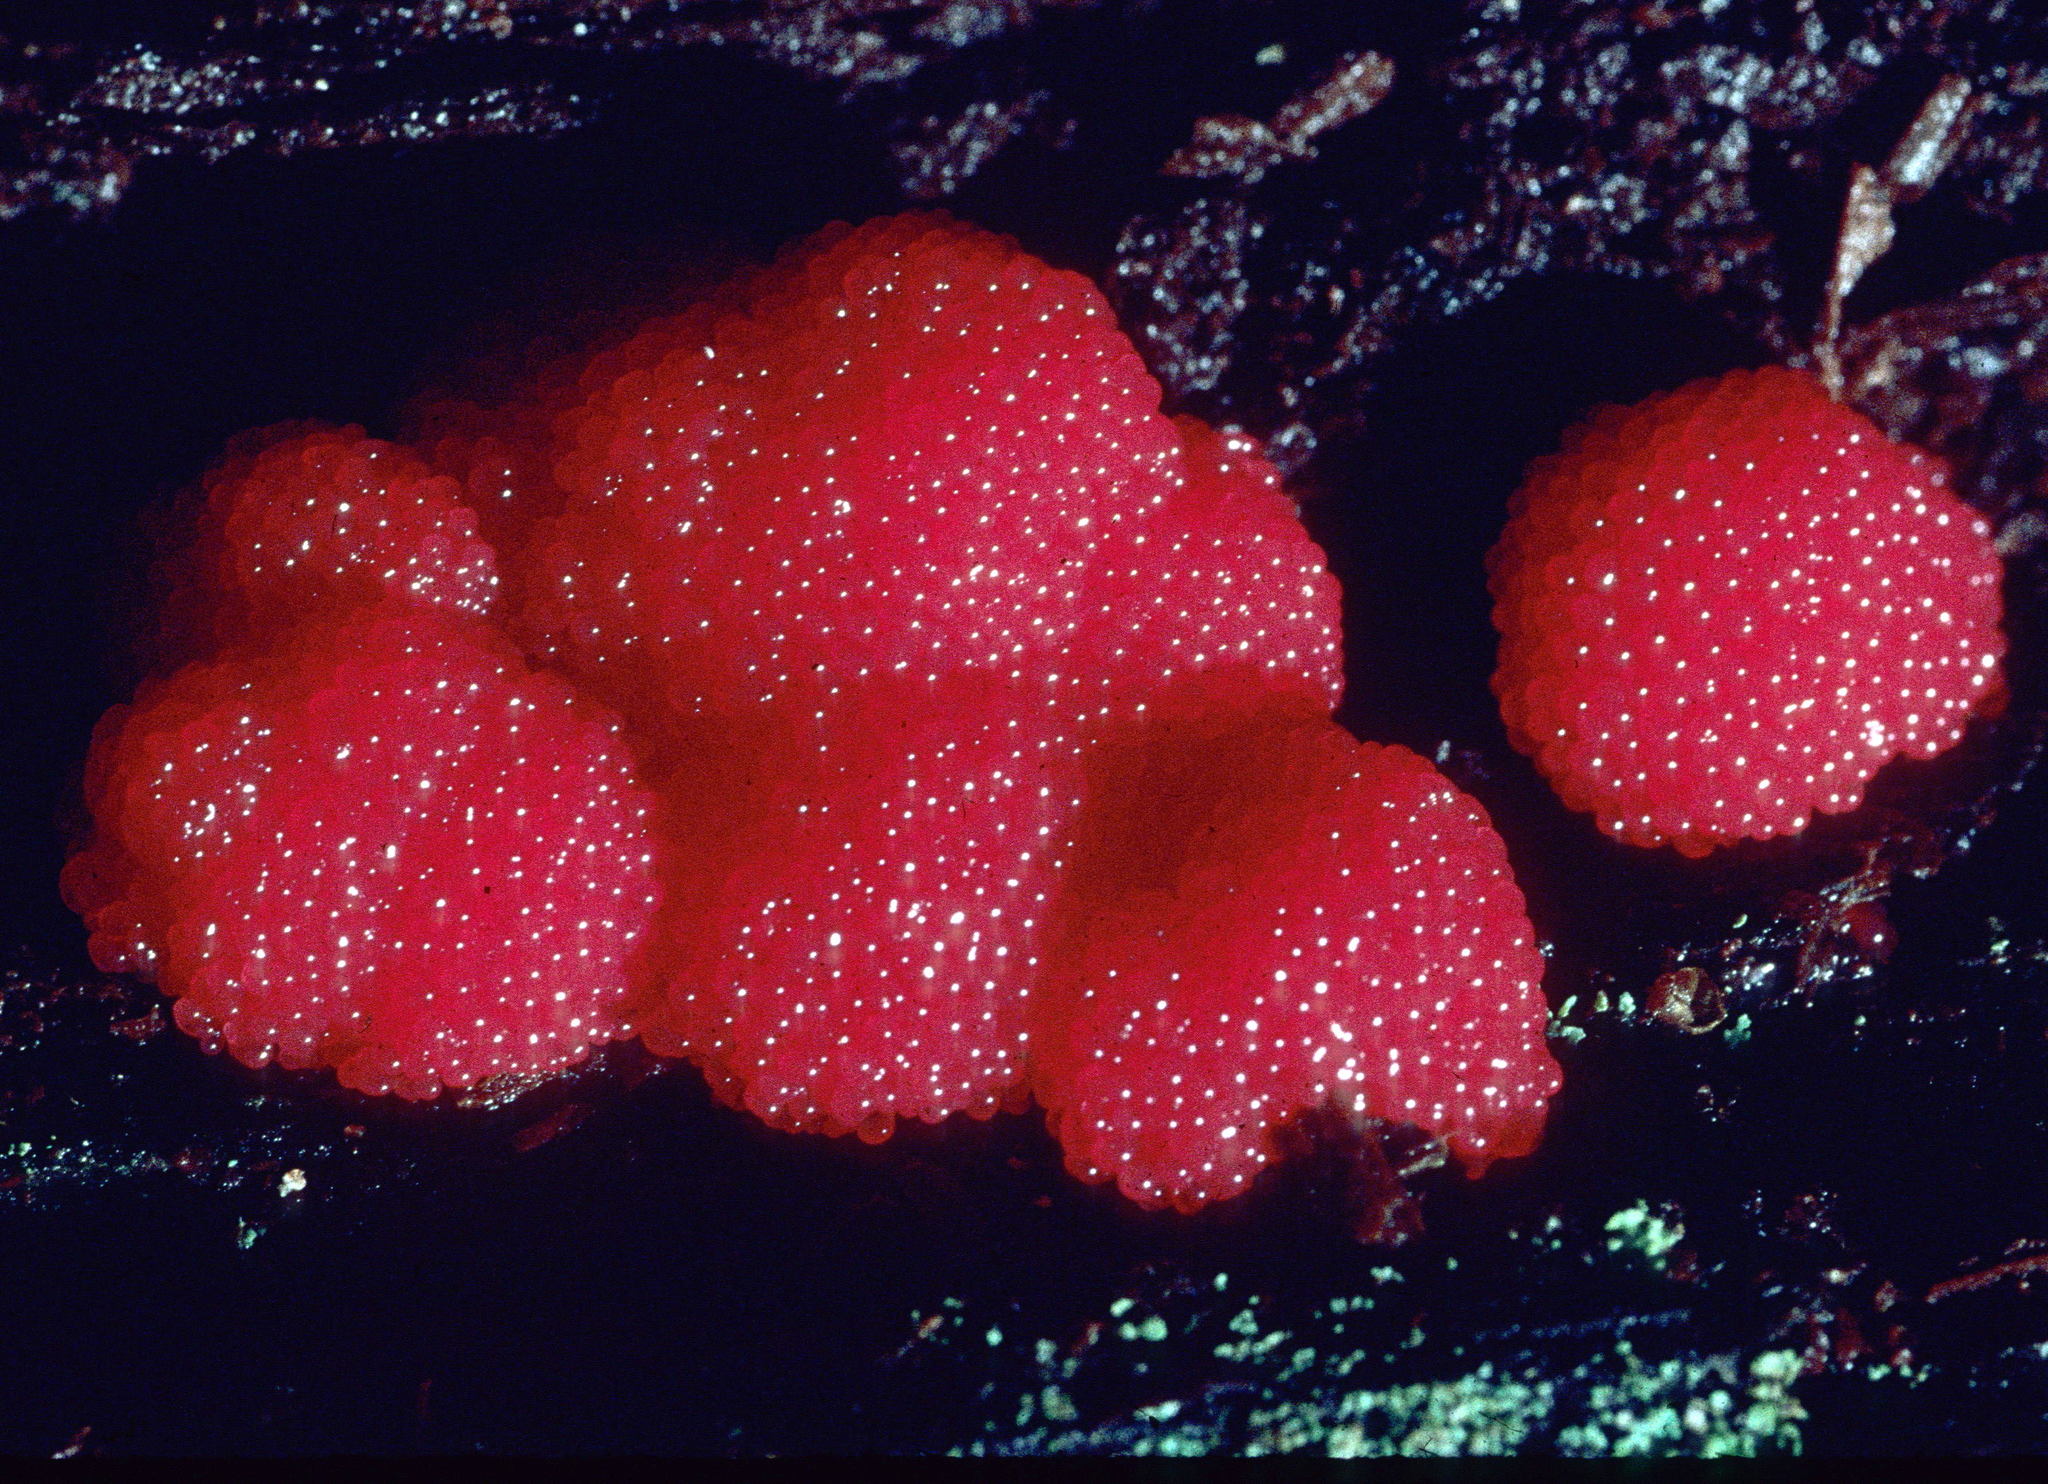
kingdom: Protozoa
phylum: Mycetozoa
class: Myxomycetes
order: Cribrariales
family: Tubiferaceae
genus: Tubifera
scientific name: Tubifera ferruginosa
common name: Red raspberry slime mold
